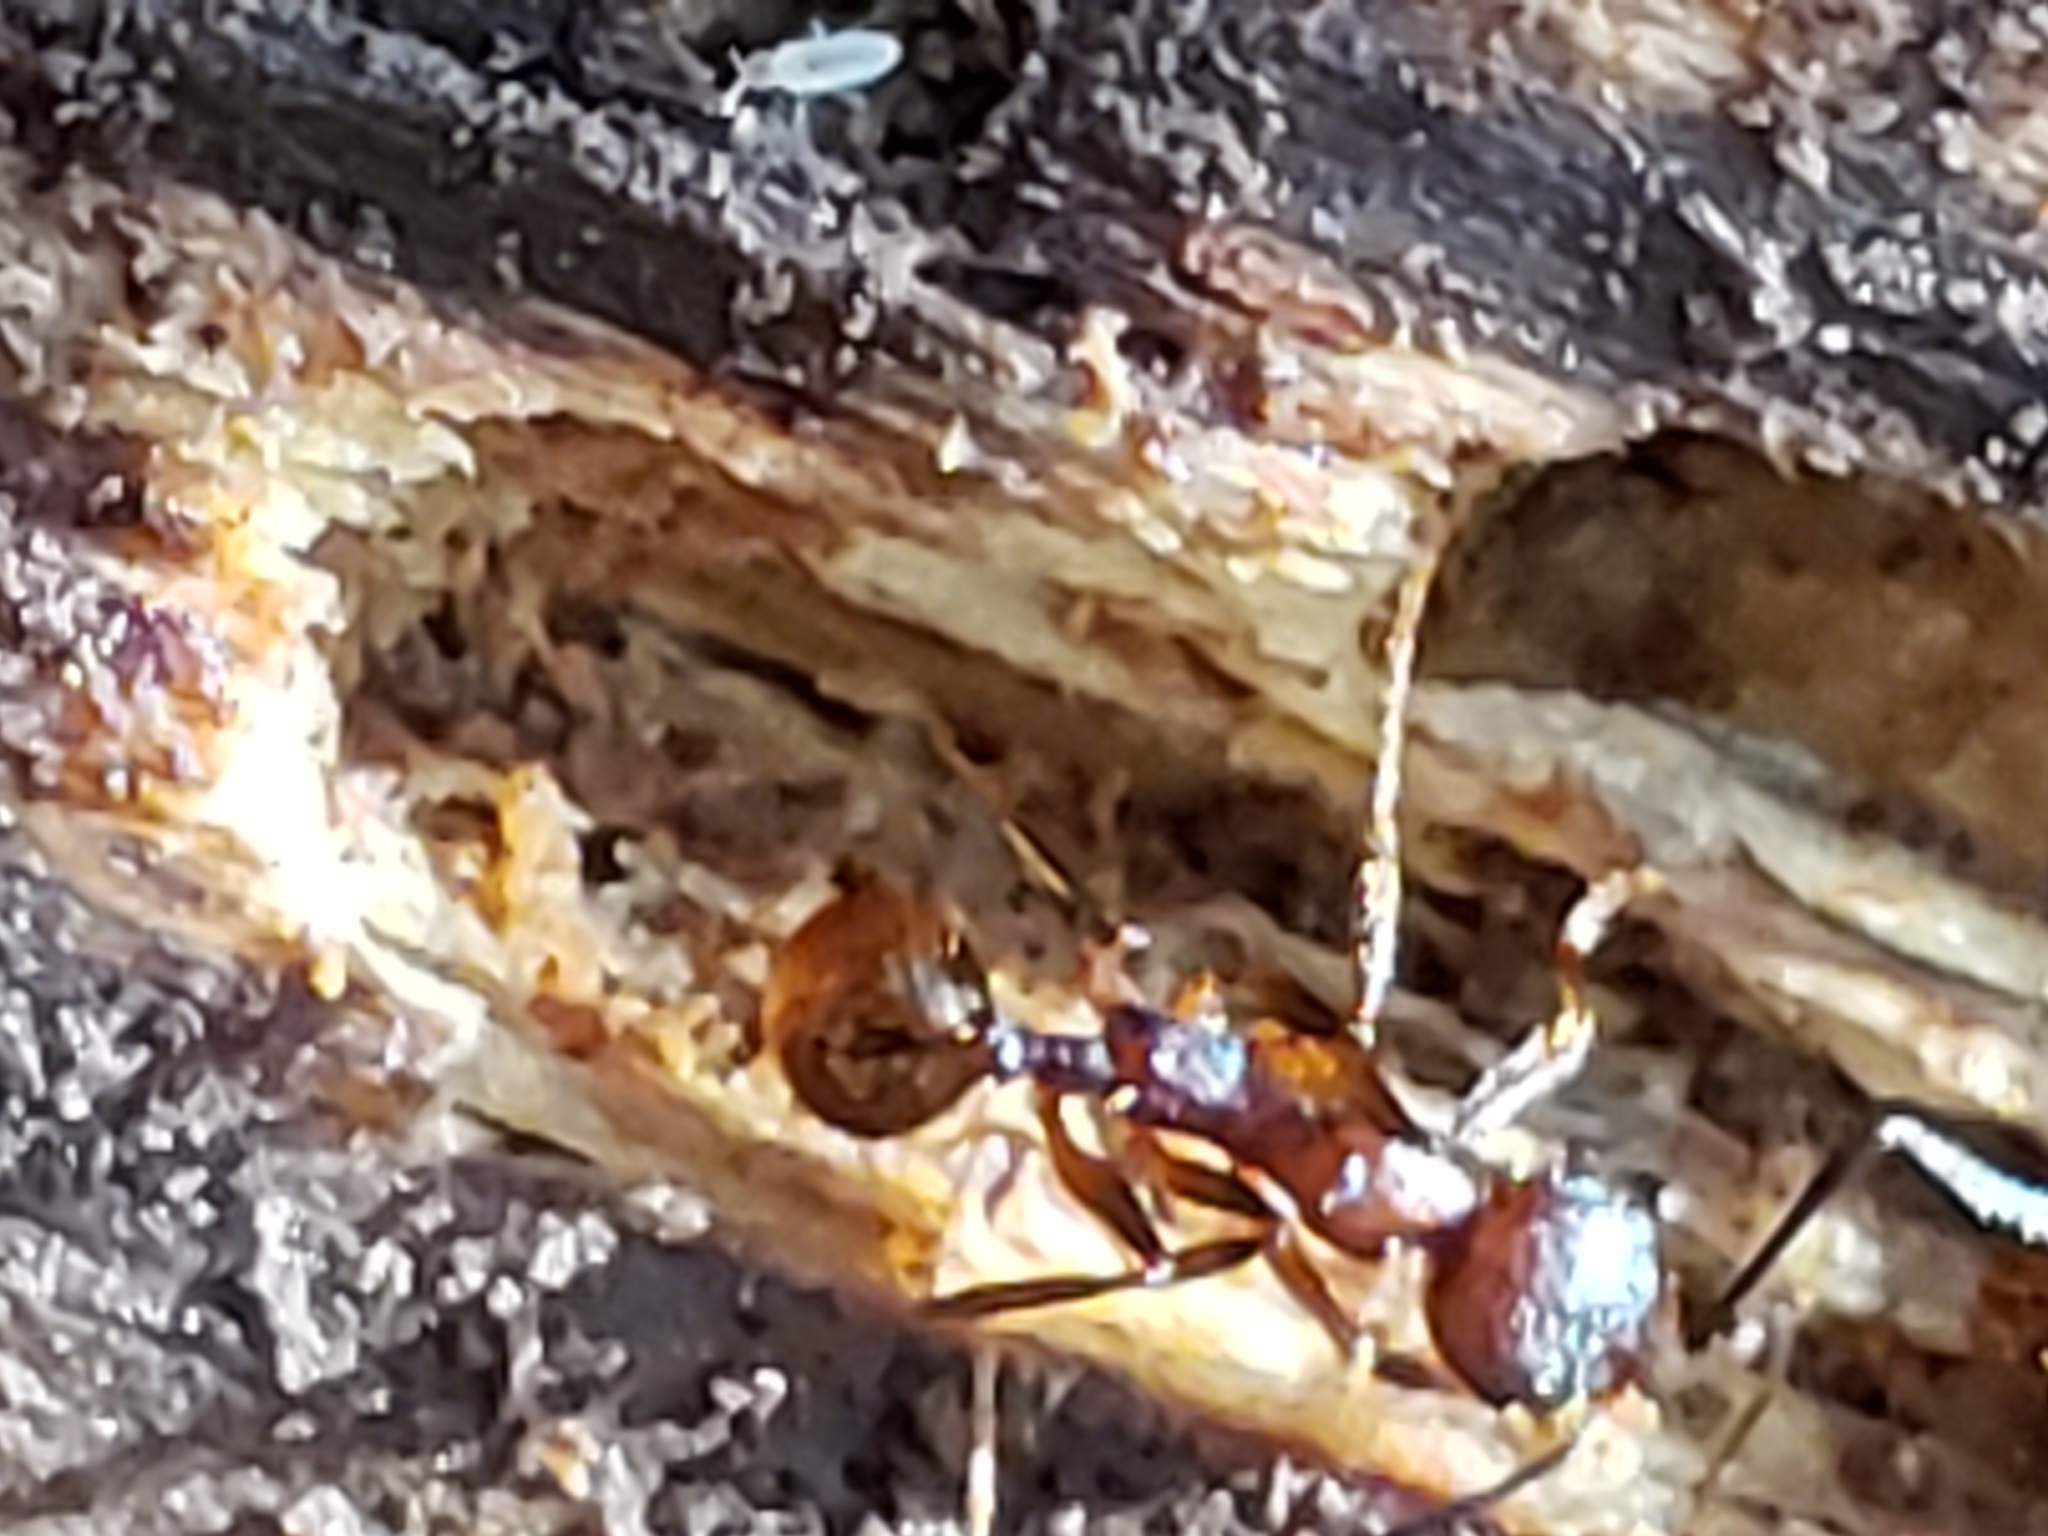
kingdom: Animalia
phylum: Arthropoda
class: Insecta
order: Hymenoptera
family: Formicidae
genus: Aphaenogaster
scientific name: Aphaenogaster fulva
